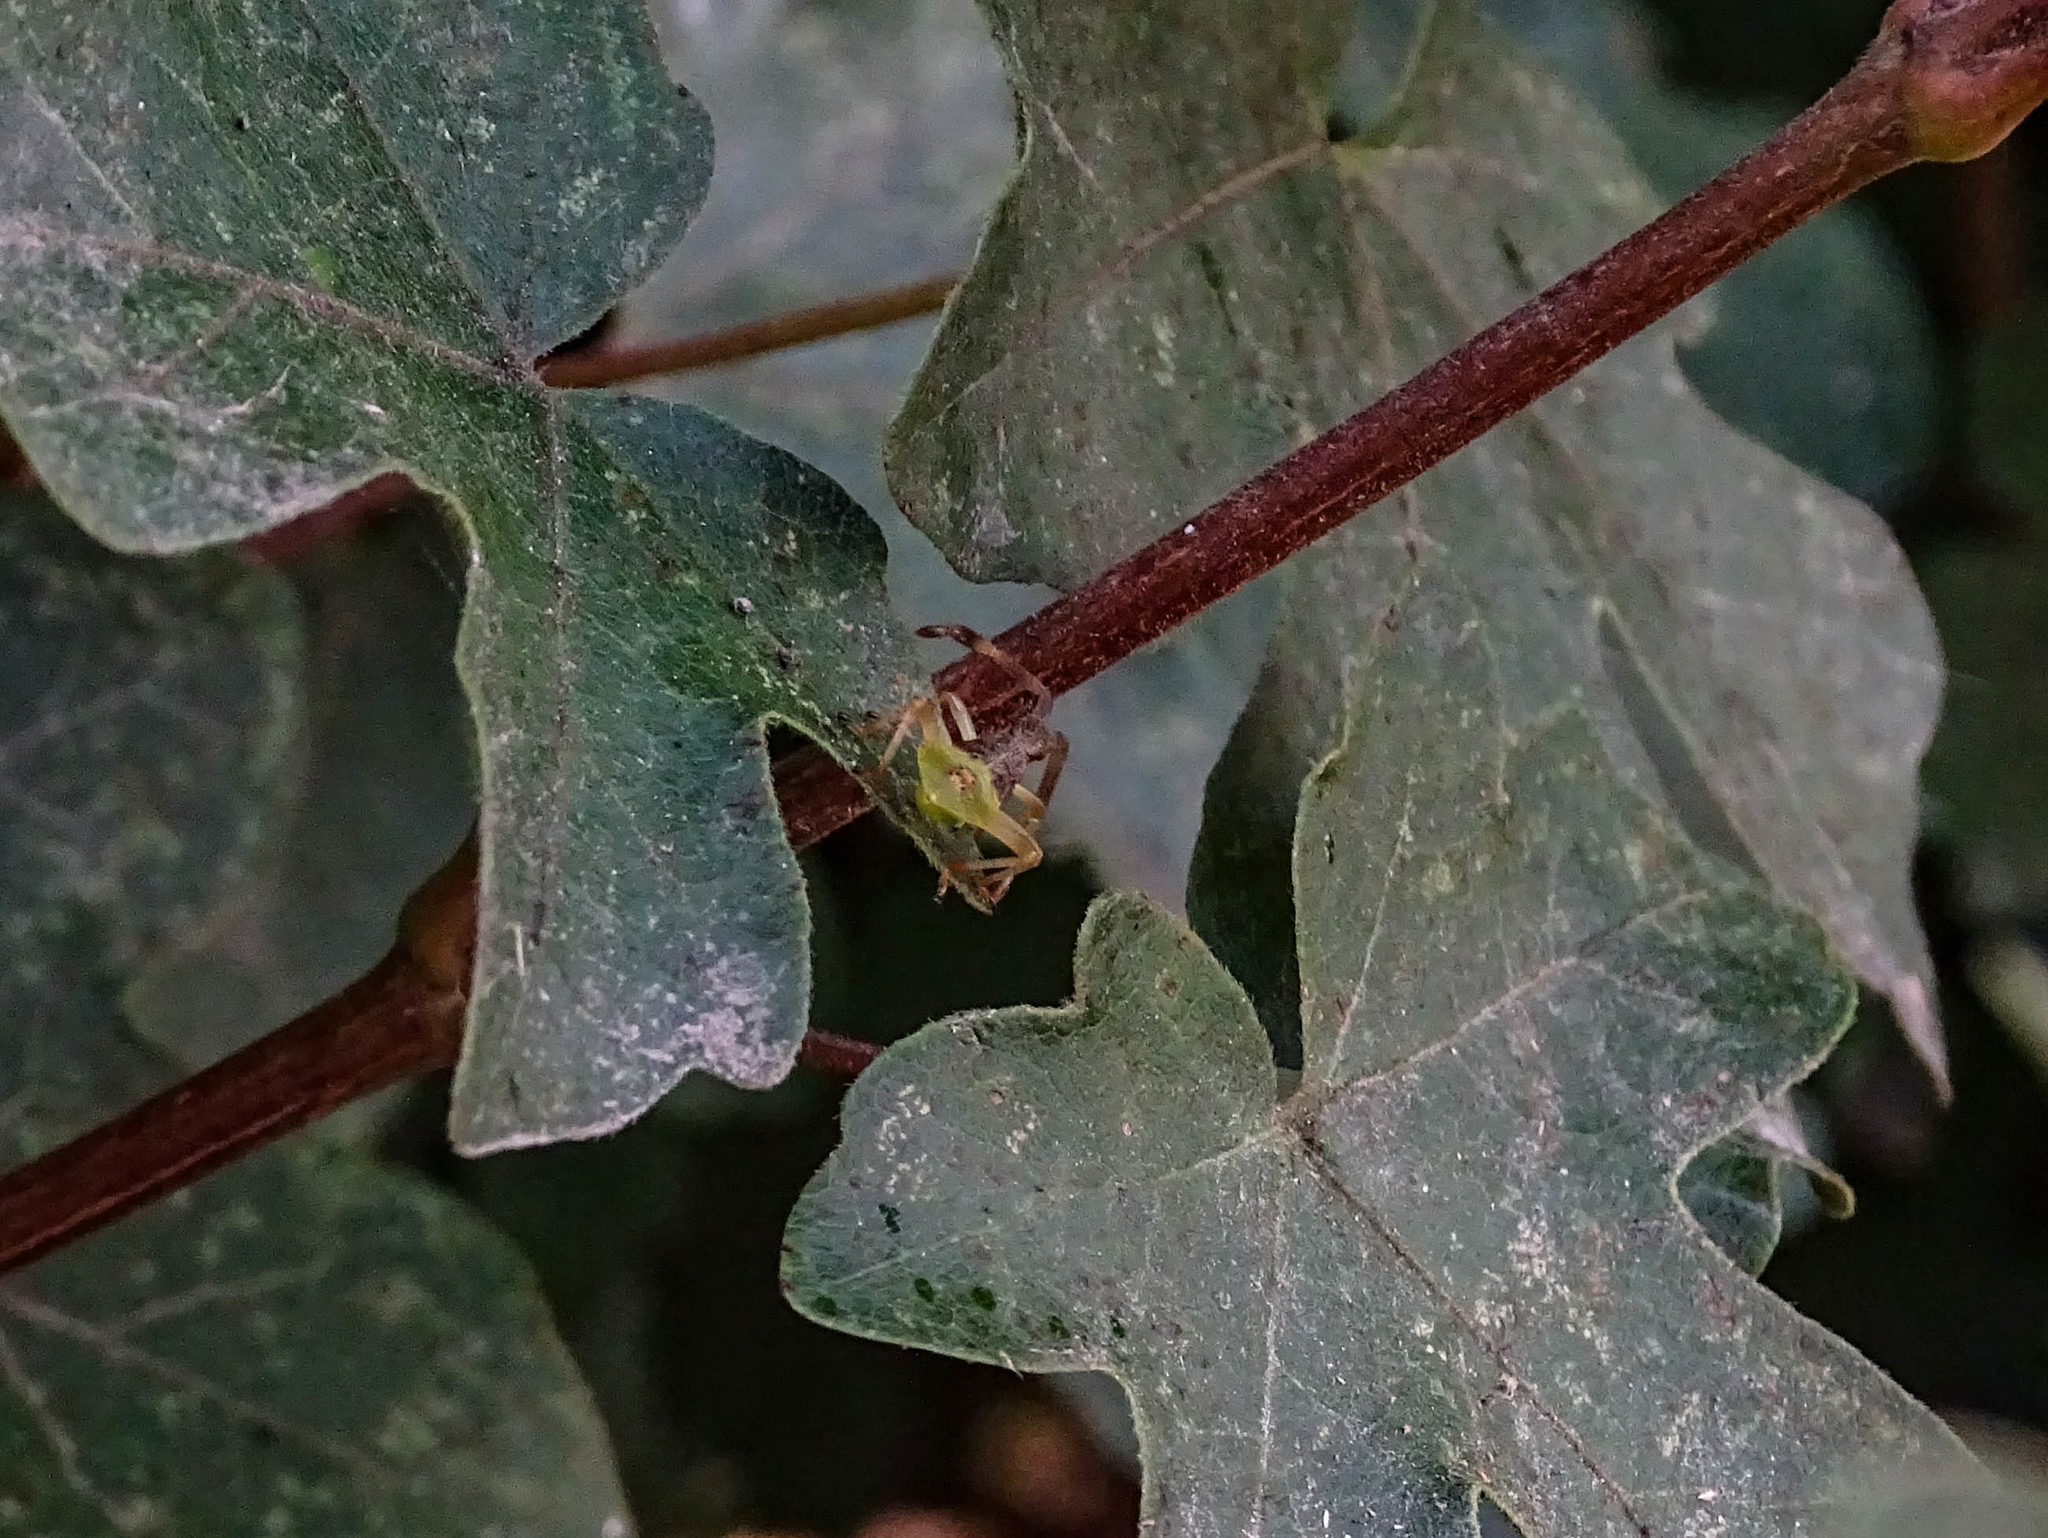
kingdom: Animalia
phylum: Arthropoda
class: Insecta
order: Hemiptera
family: Coreidae
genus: Gonocerus
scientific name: Gonocerus acuteangulatus
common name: Box bug
